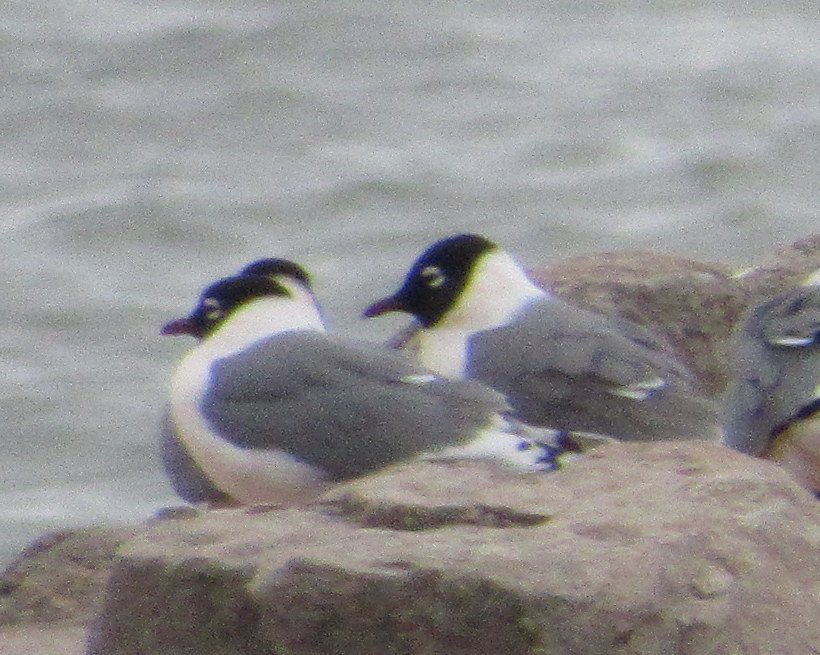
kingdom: Animalia
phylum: Chordata
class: Aves
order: Charadriiformes
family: Laridae
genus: Leucophaeus
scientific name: Leucophaeus pipixcan
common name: Franklin's gull
